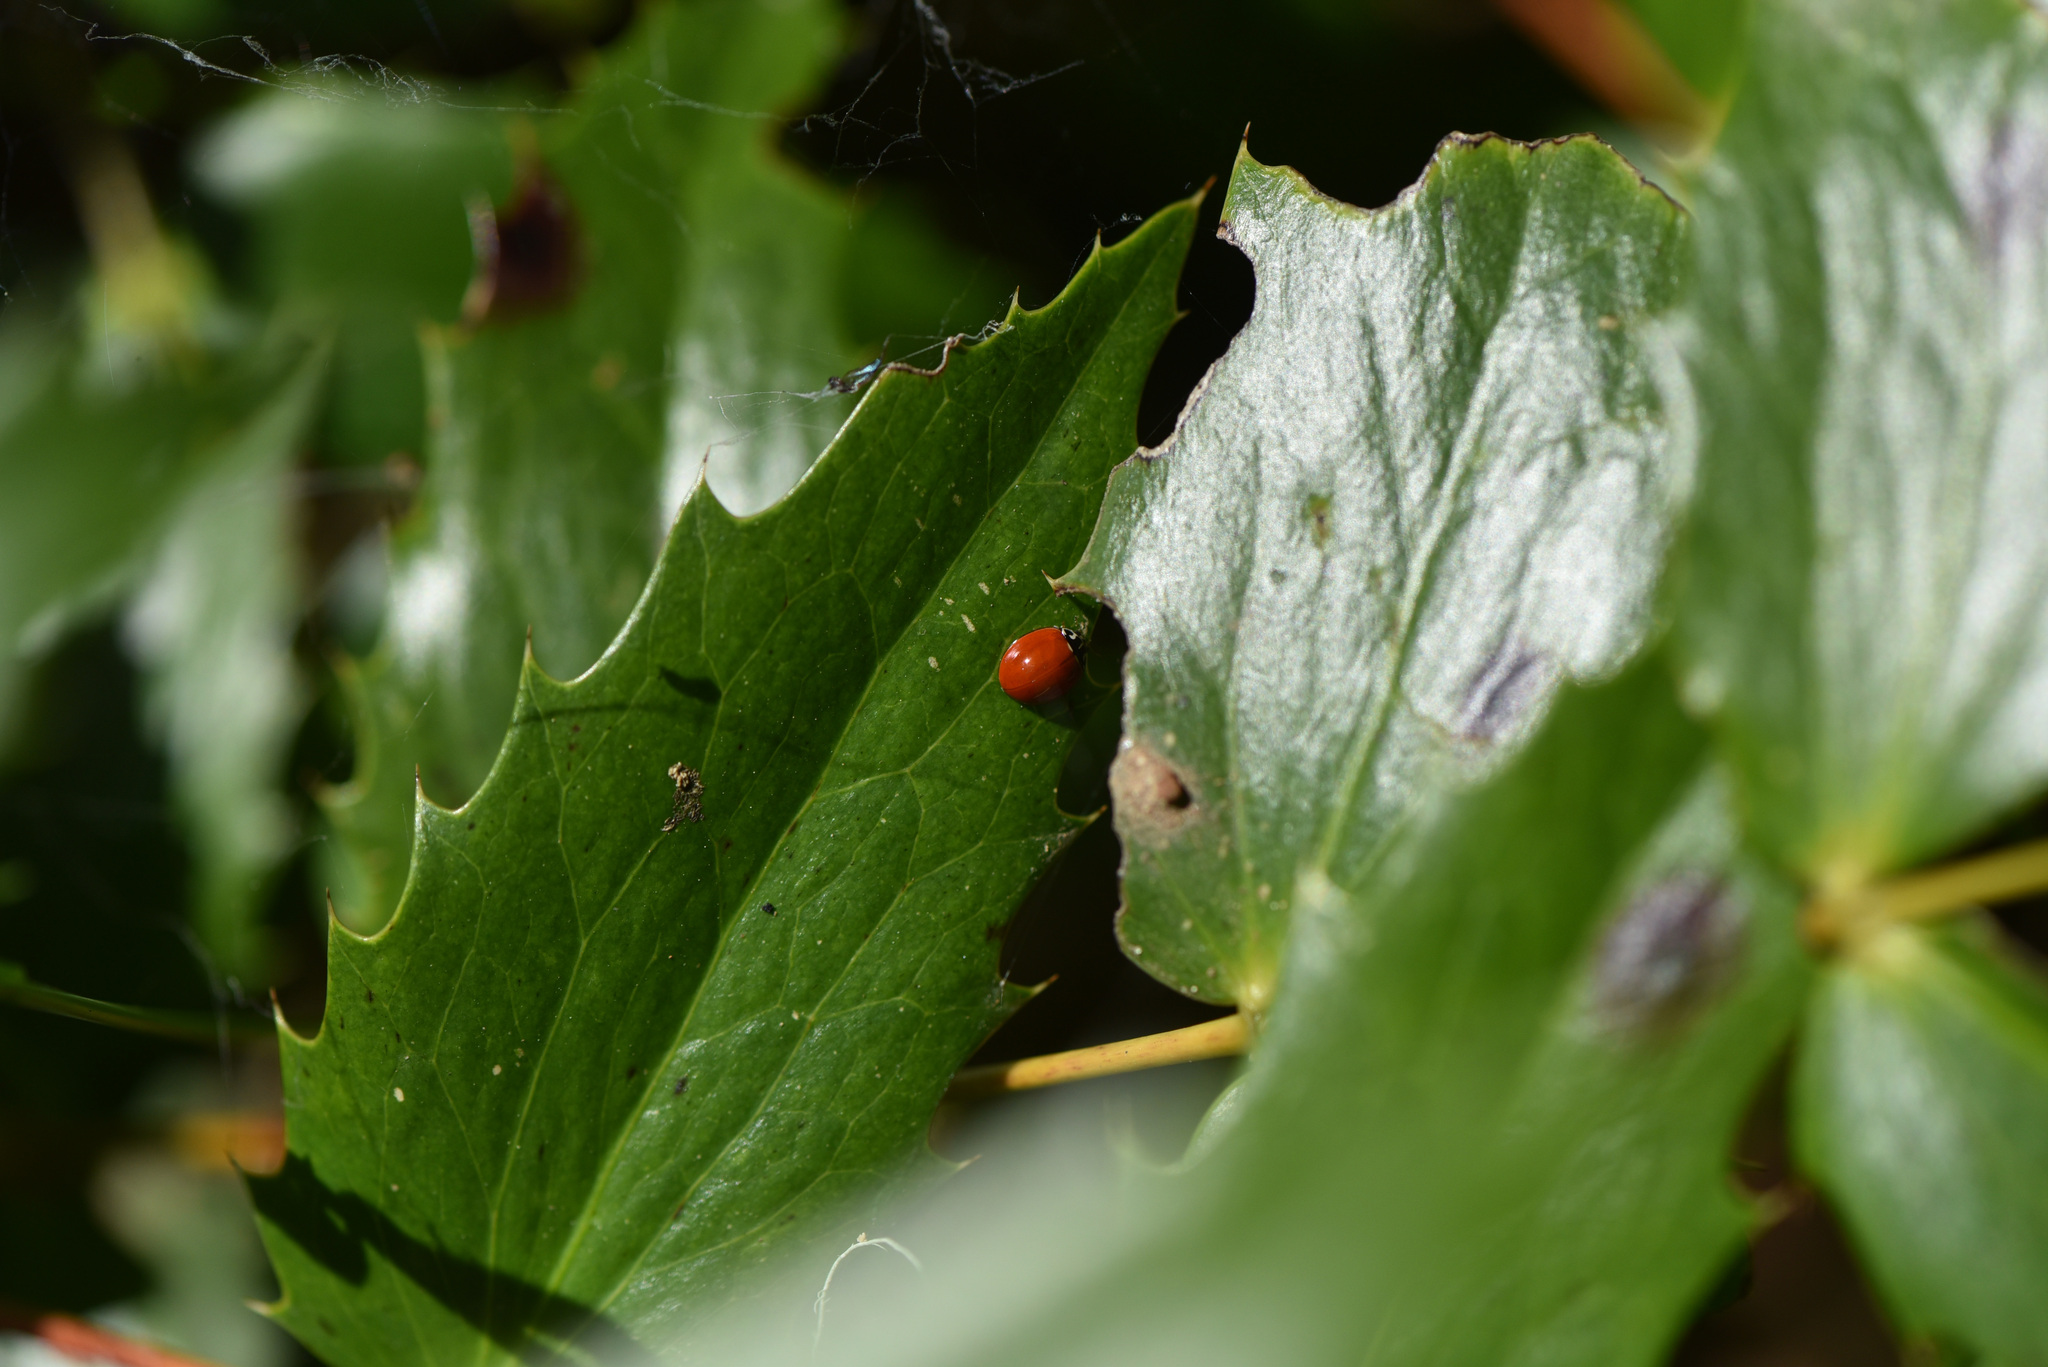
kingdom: Plantae
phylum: Tracheophyta
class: Magnoliopsida
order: Ranunculales
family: Berberidaceae
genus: Mahonia
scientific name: Mahonia nervosa
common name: Cascade oregon-grape
